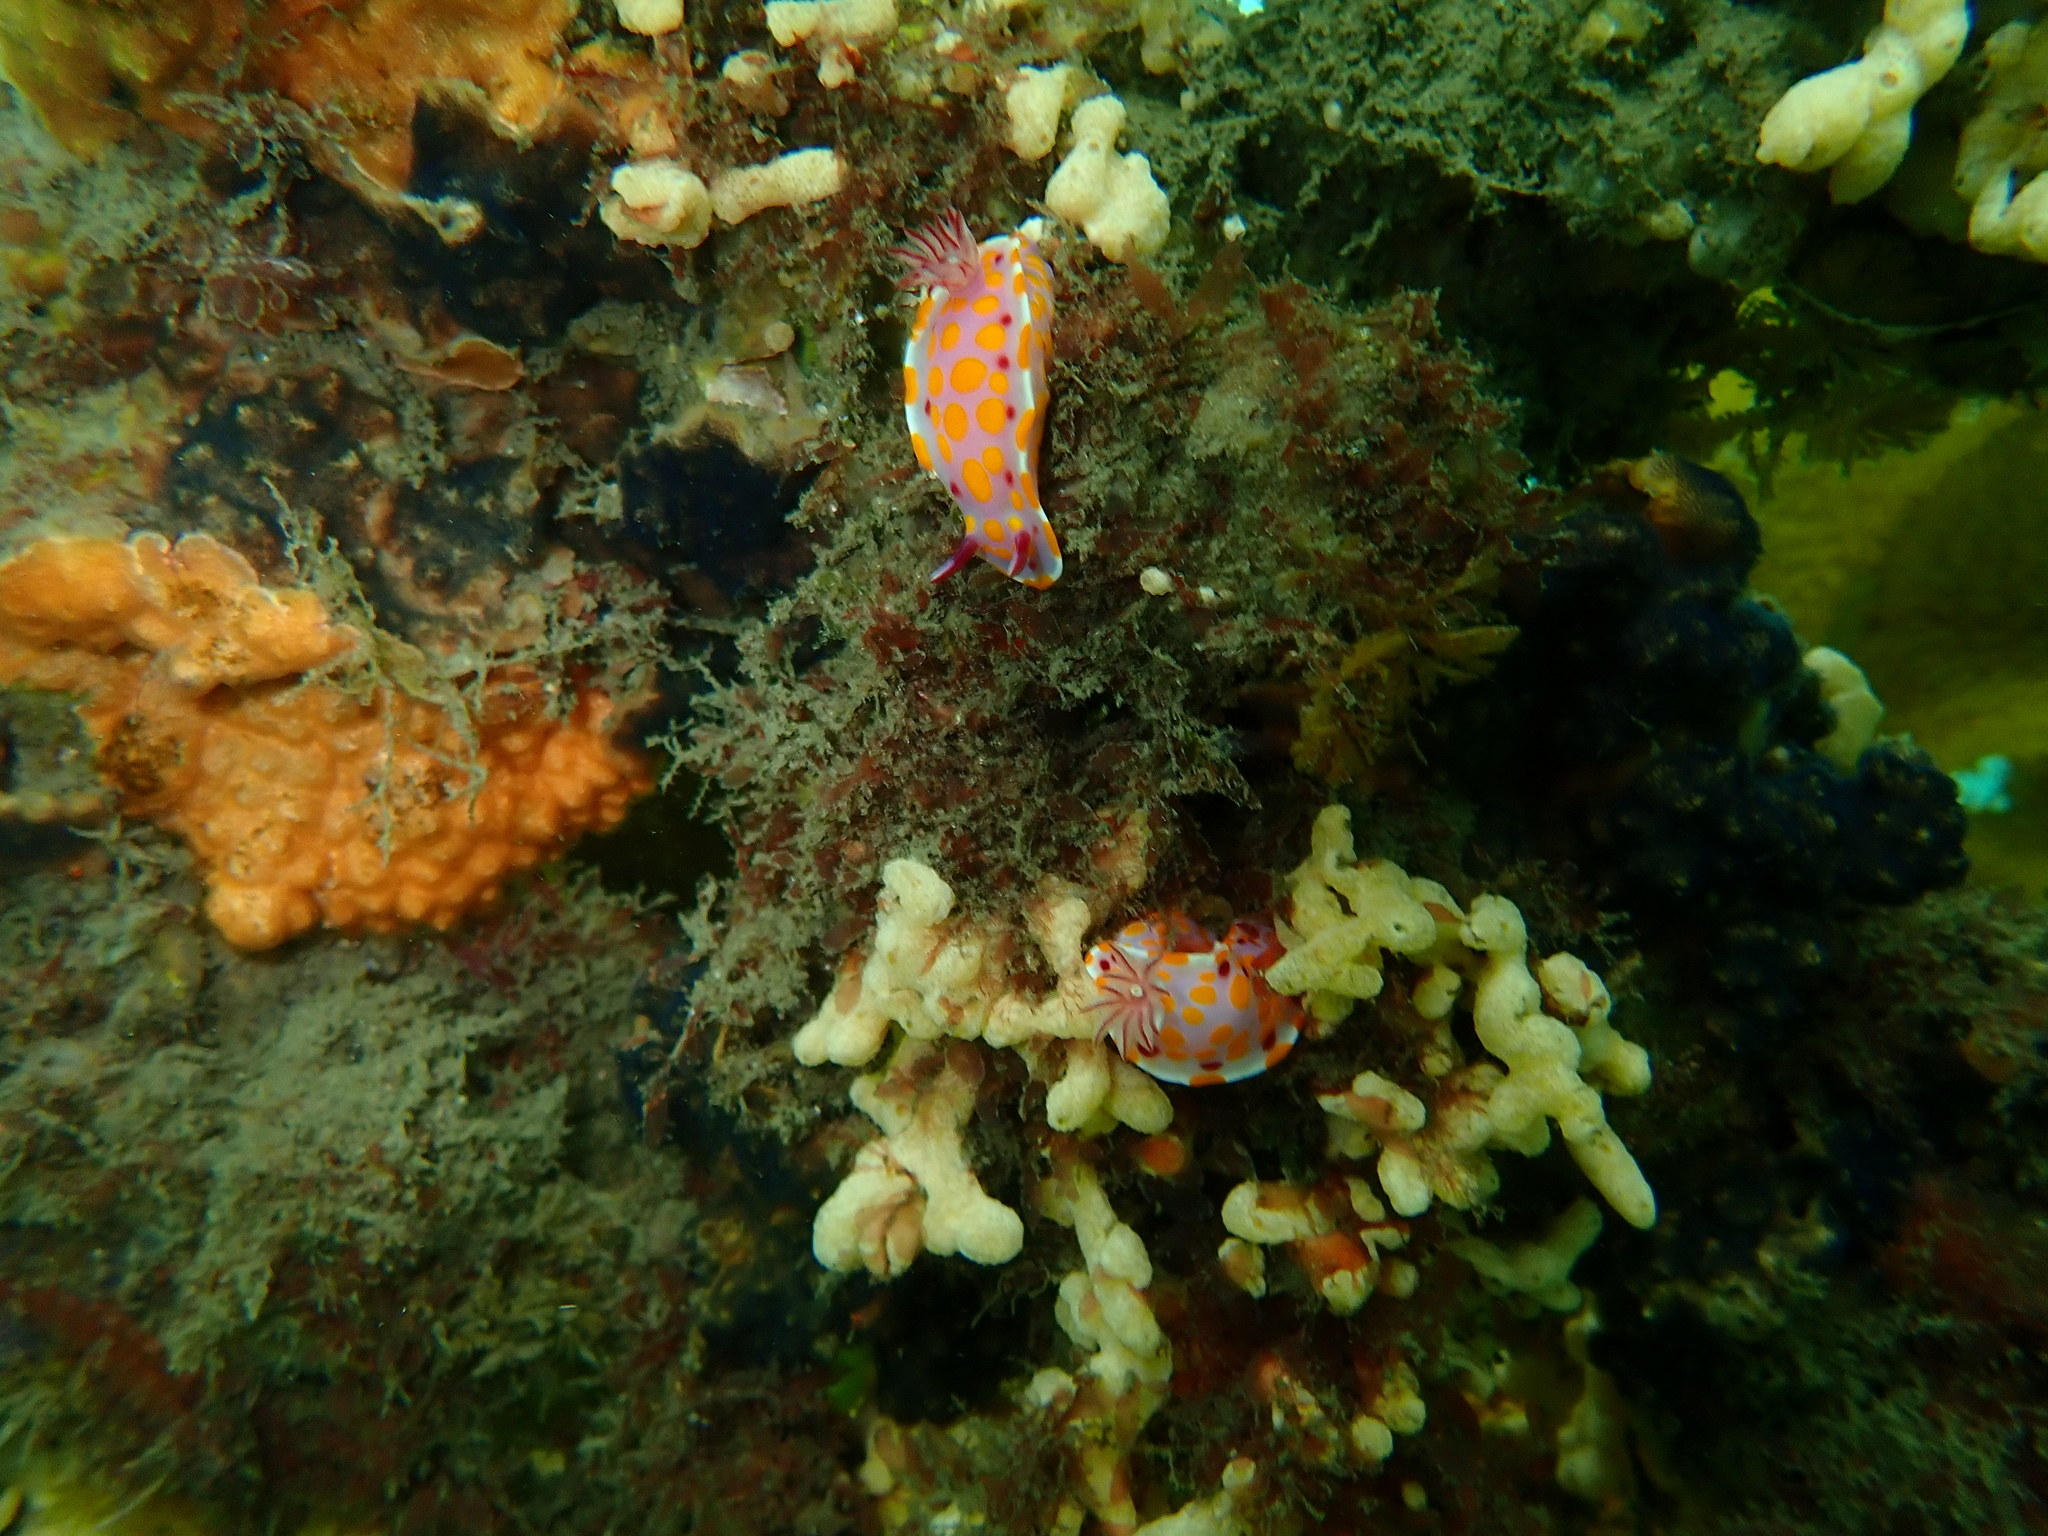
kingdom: Animalia
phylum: Mollusca
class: Gastropoda
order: Nudibranchia
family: Chromodorididae
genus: Ceratosoma
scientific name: Ceratosoma amoenum
